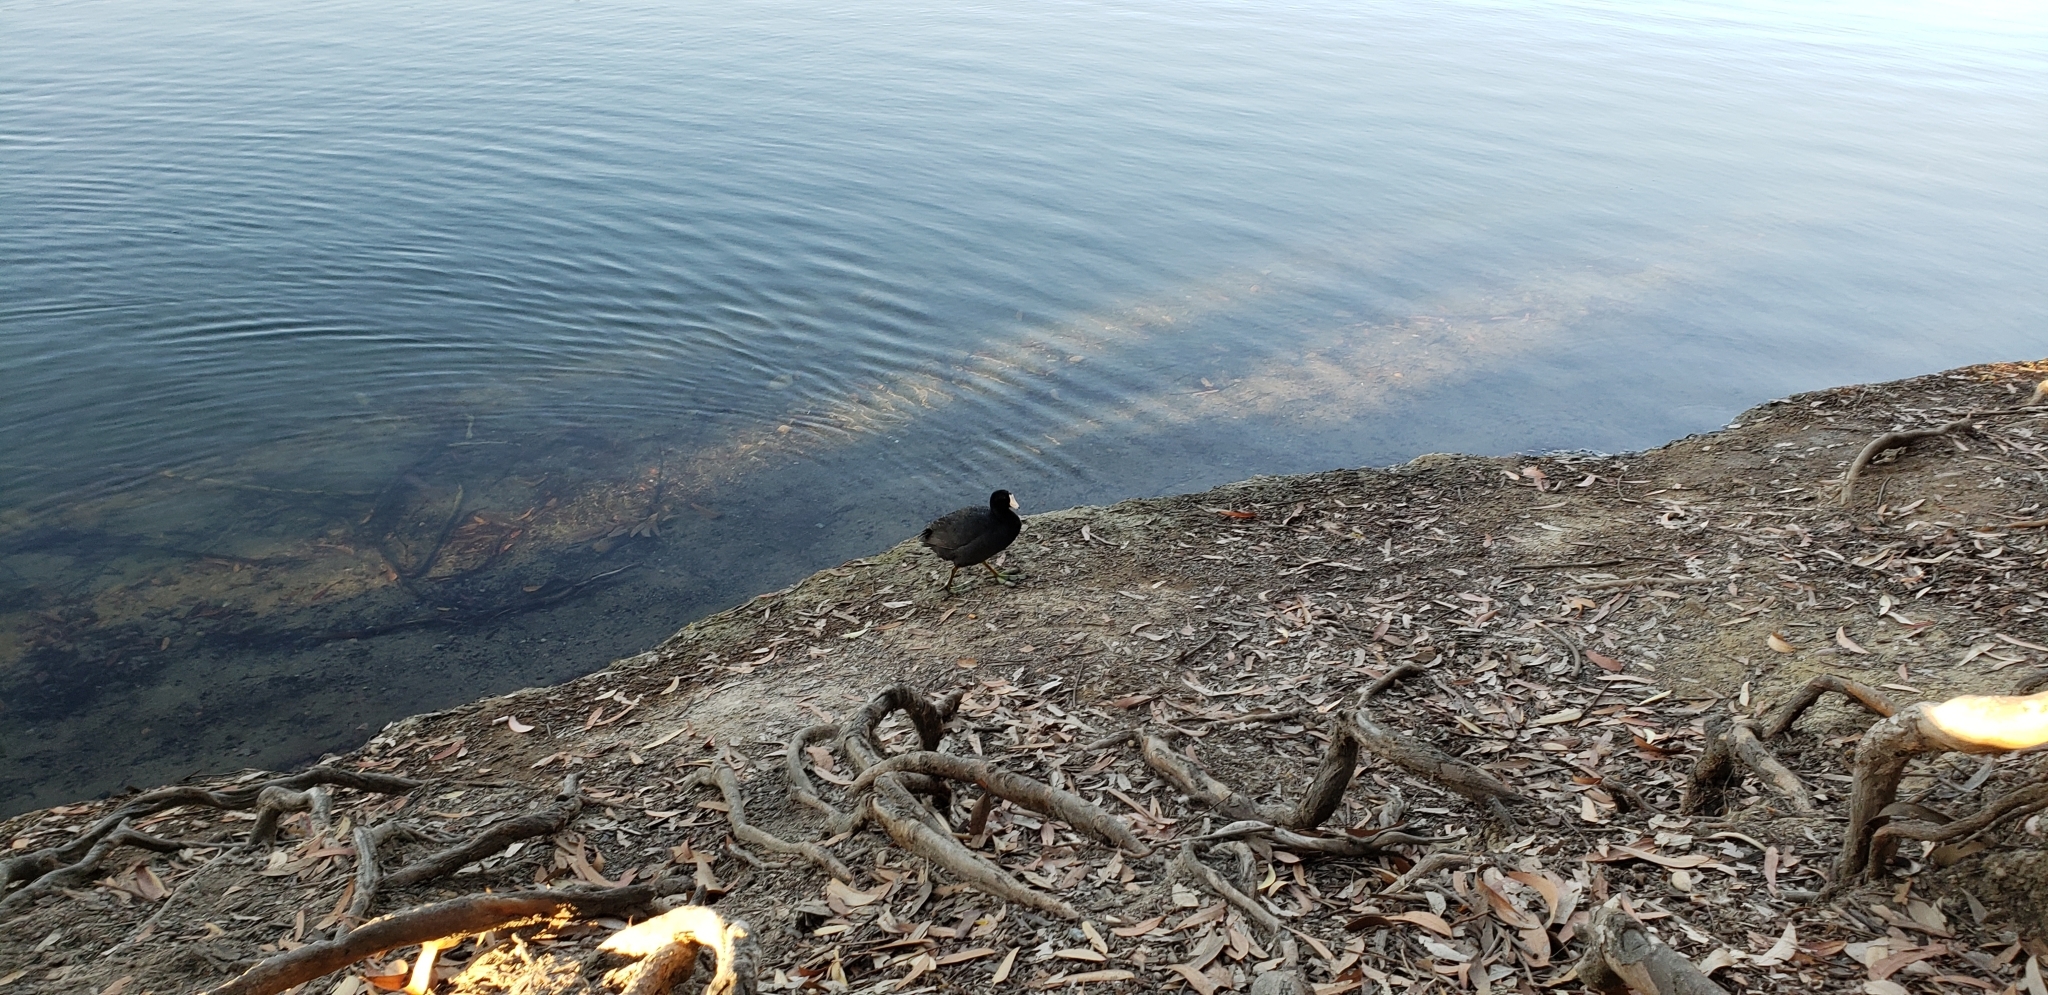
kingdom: Animalia
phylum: Chordata
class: Aves
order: Gruiformes
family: Rallidae
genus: Fulica
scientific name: Fulica americana
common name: American coot
